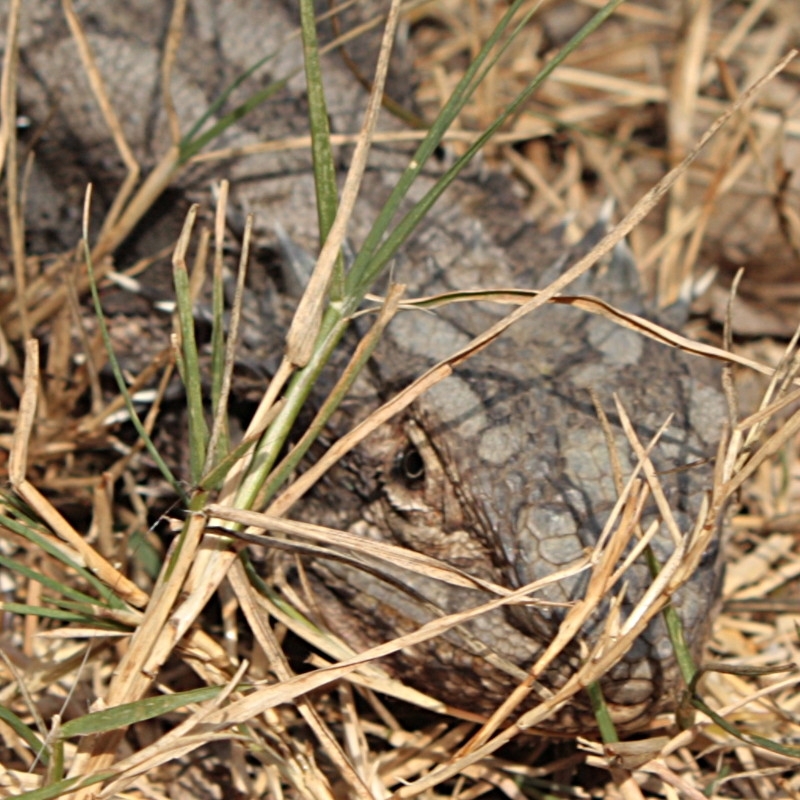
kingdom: Animalia
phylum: Chordata
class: Squamata
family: Agamidae
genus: Pogona
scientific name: Pogona barbata
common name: Bearded dragon
